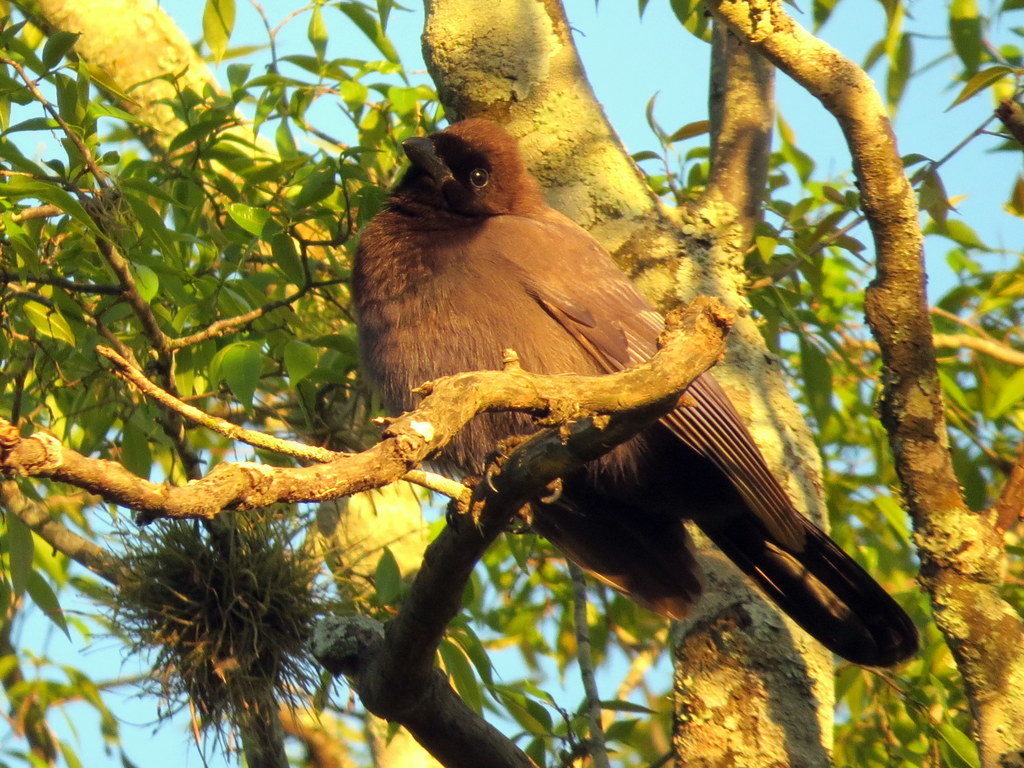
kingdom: Animalia
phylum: Chordata
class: Aves
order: Passeriformes
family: Corvidae
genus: Cyanocorax
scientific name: Cyanocorax cyanomelas
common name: Purplish jay
